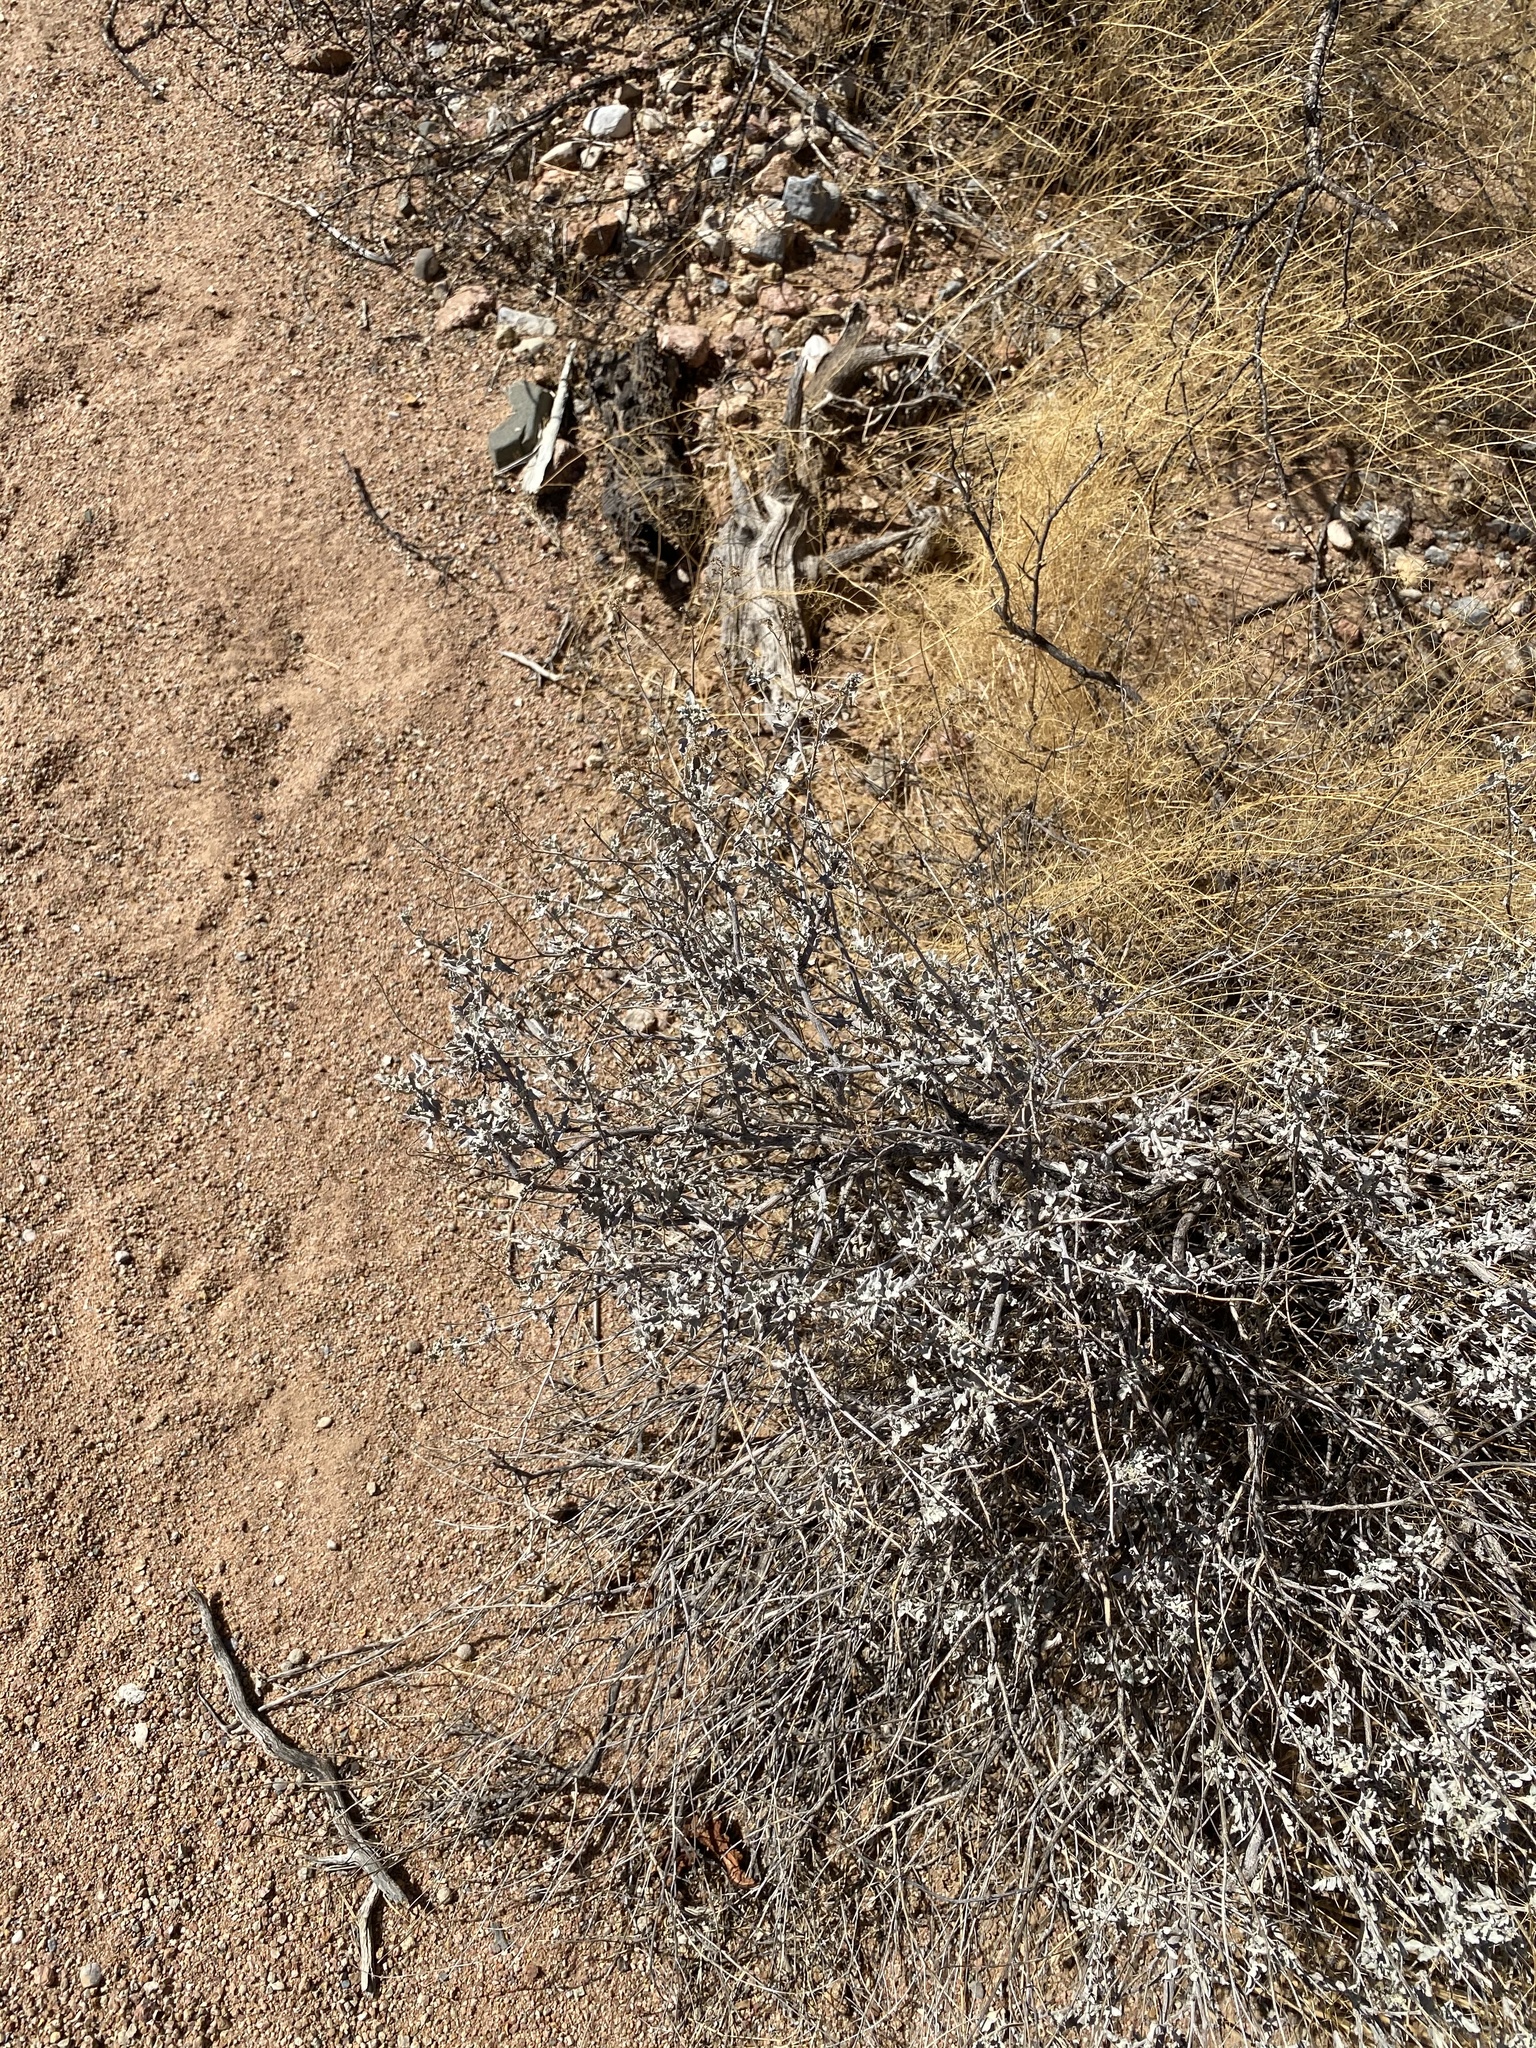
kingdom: Plantae
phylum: Tracheophyta
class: Magnoliopsida
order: Asterales
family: Asteraceae
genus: Parthenium
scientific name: Parthenium incanum
